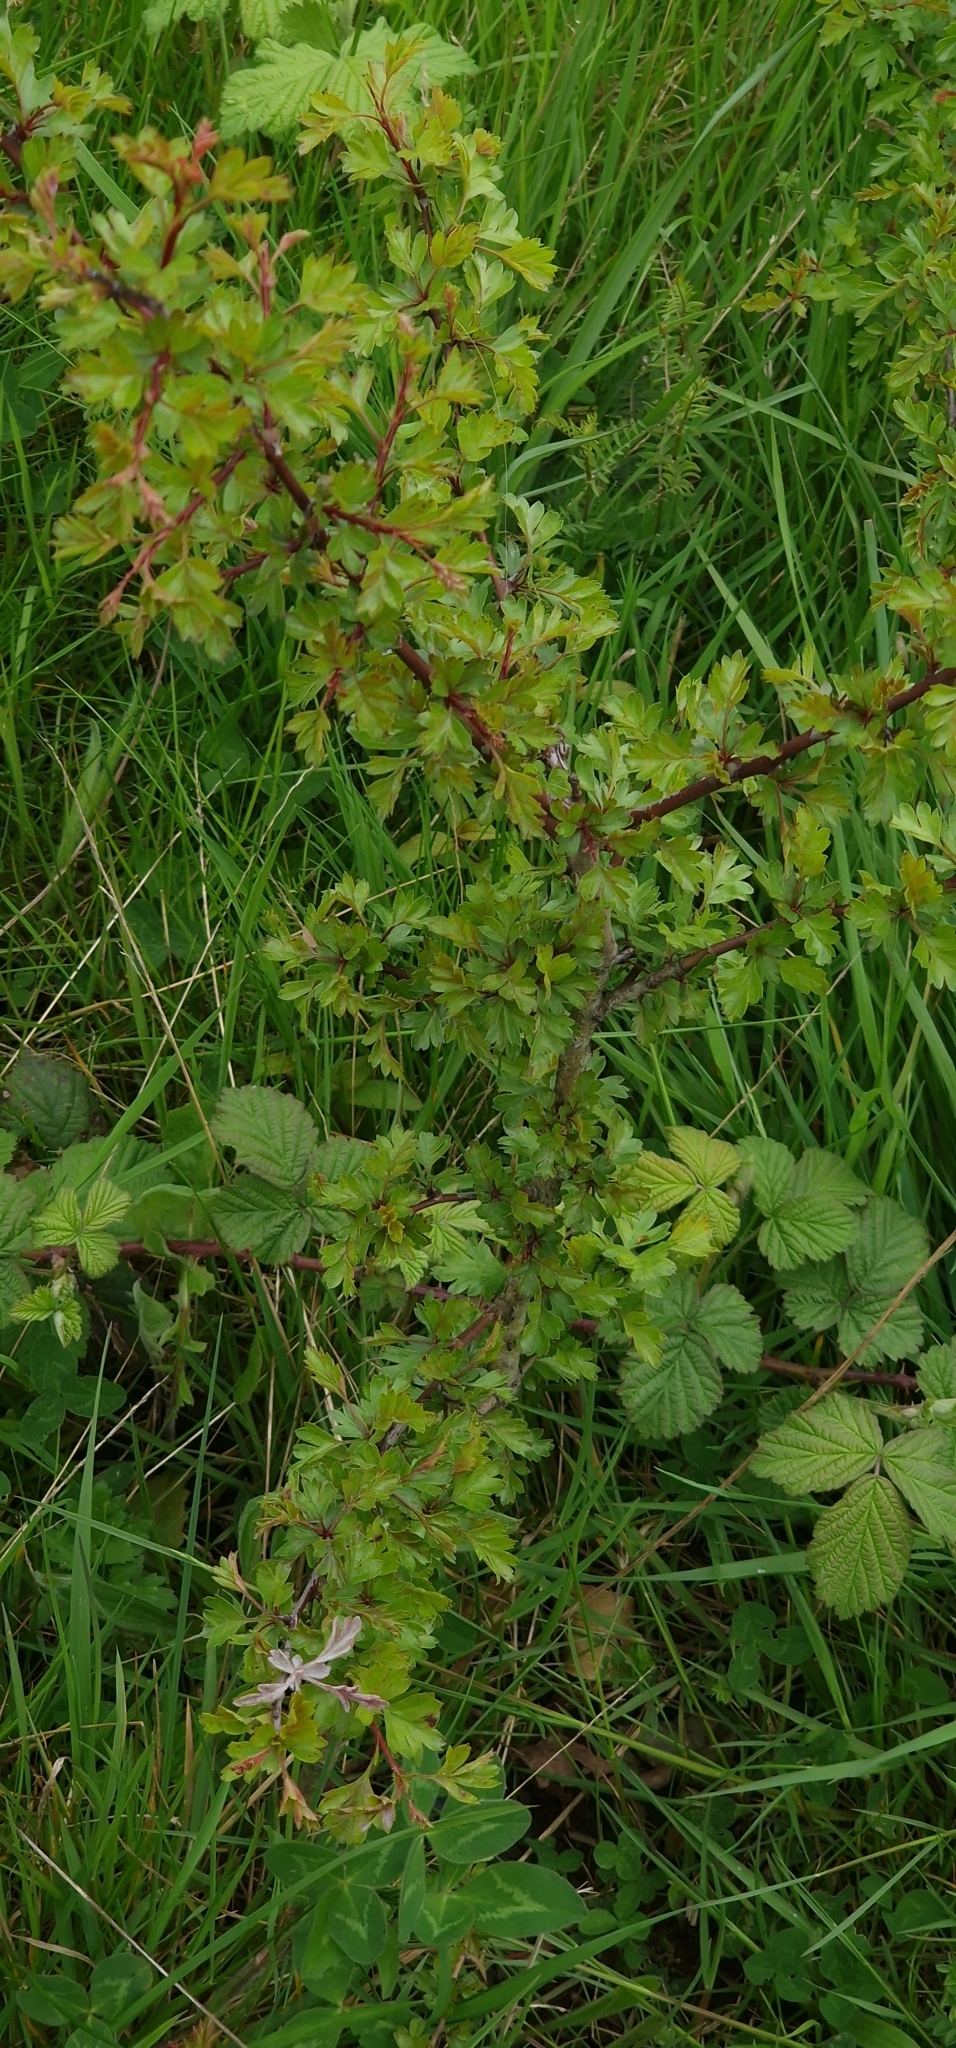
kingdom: Plantae
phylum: Tracheophyta
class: Magnoliopsida
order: Rosales
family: Rosaceae
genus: Crataegus
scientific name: Crataegus monogyna
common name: Hawthorn
